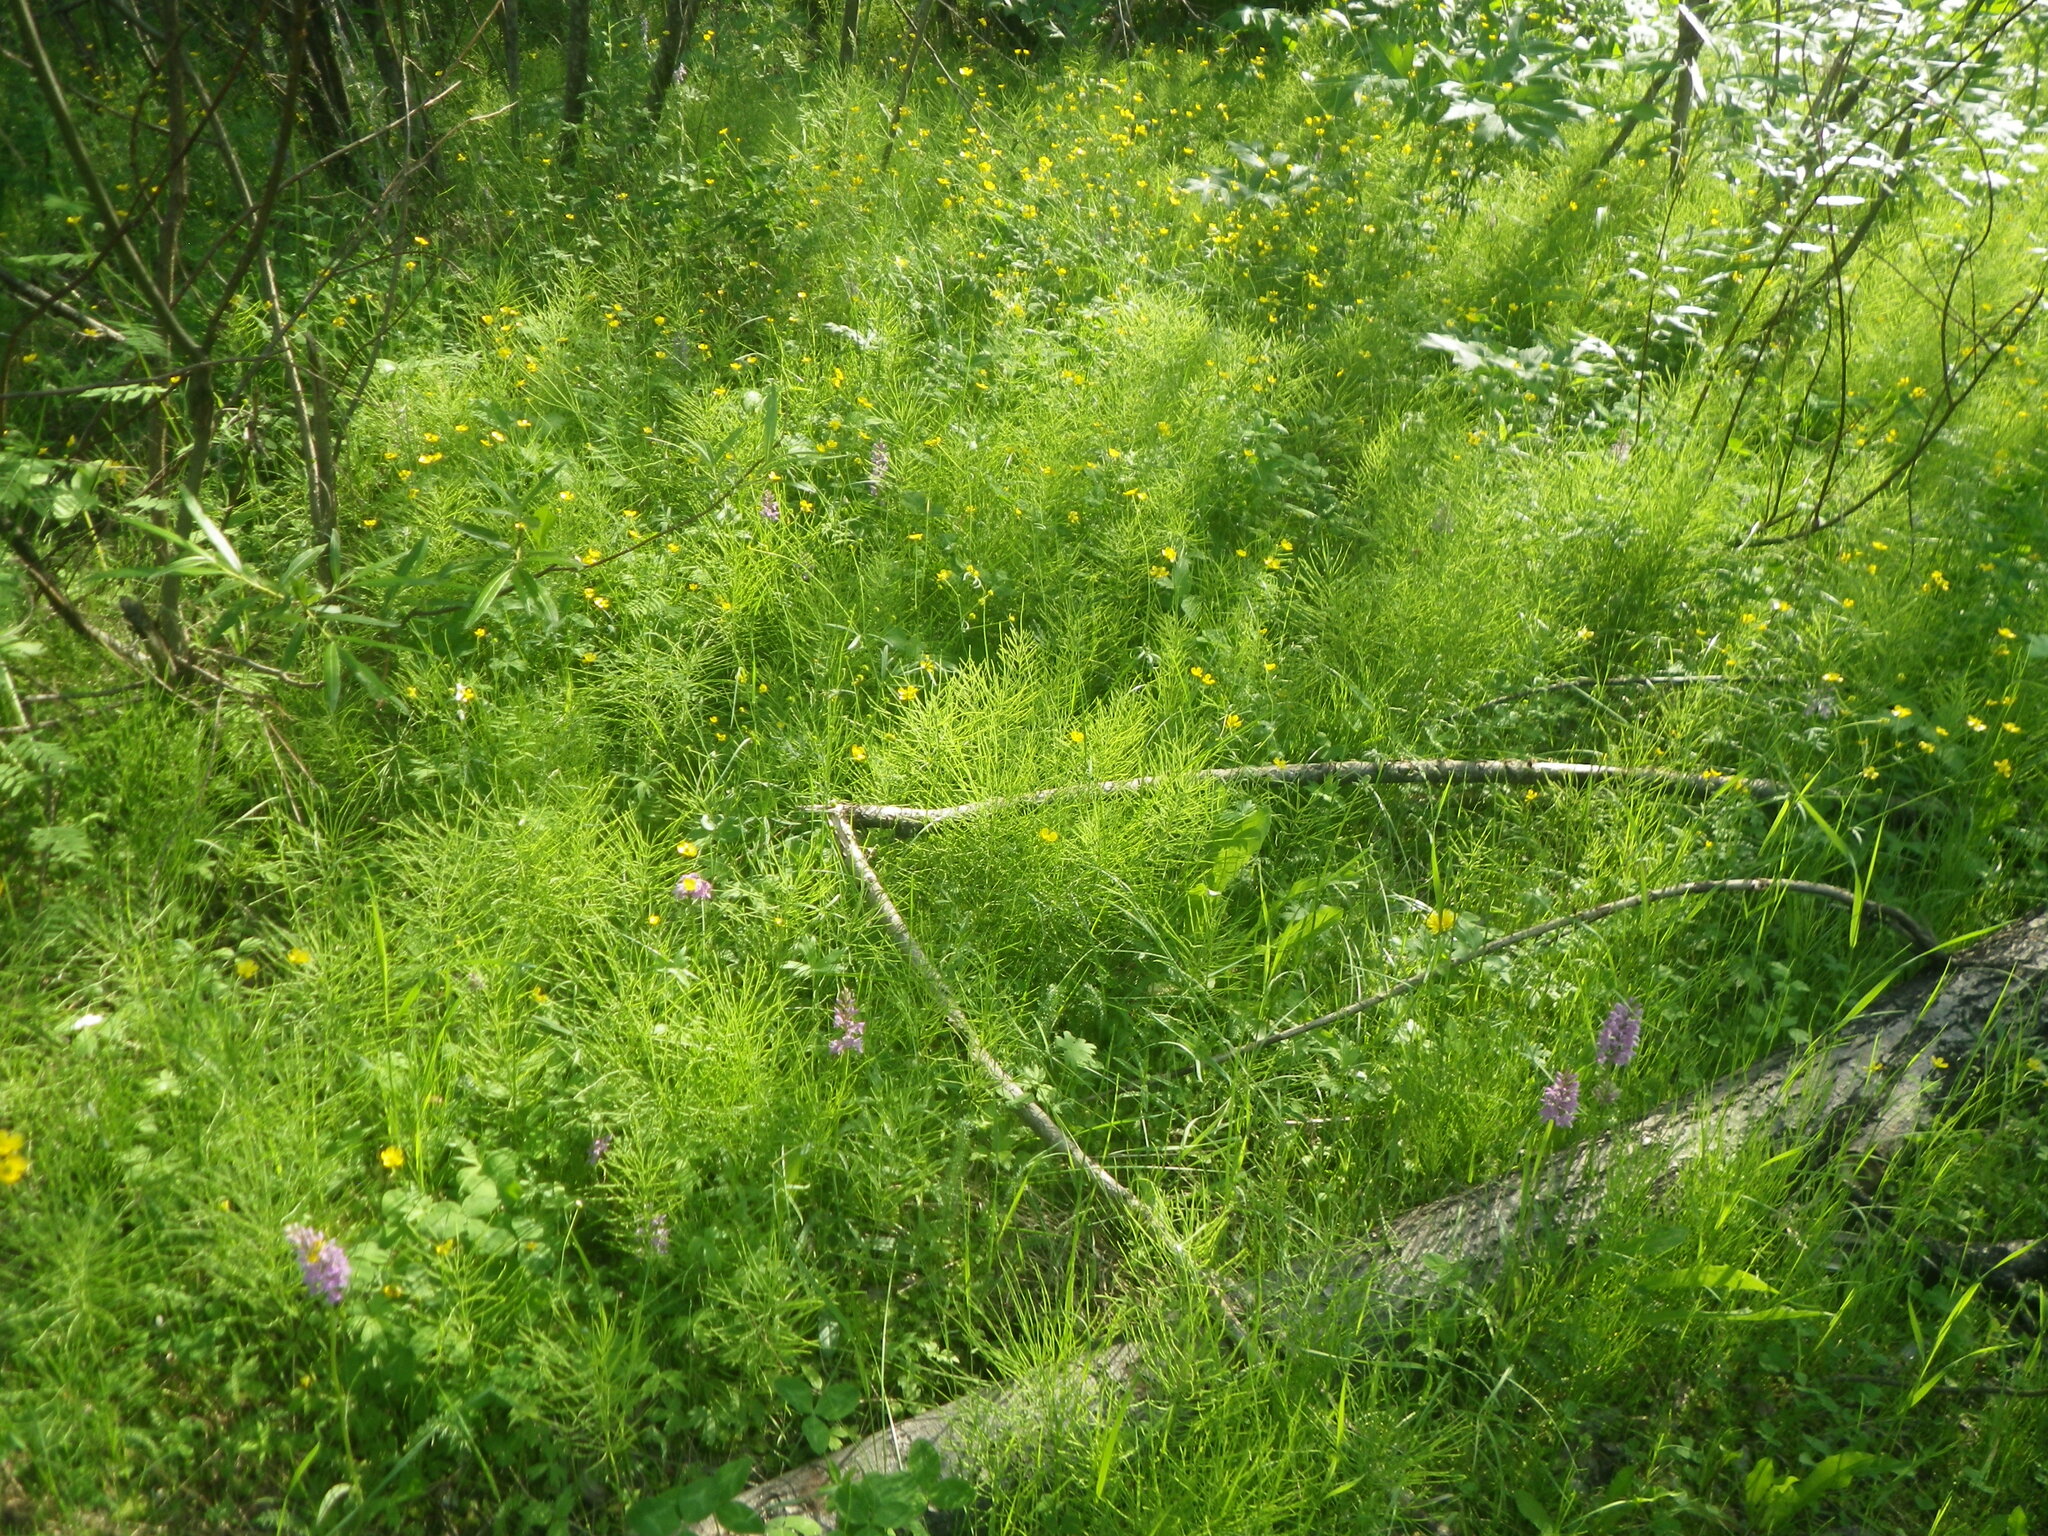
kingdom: Plantae
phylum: Tracheophyta
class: Liliopsida
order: Asparagales
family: Orchidaceae
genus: Dactylorhiza
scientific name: Dactylorhiza maculata
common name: Heath spotted-orchid
